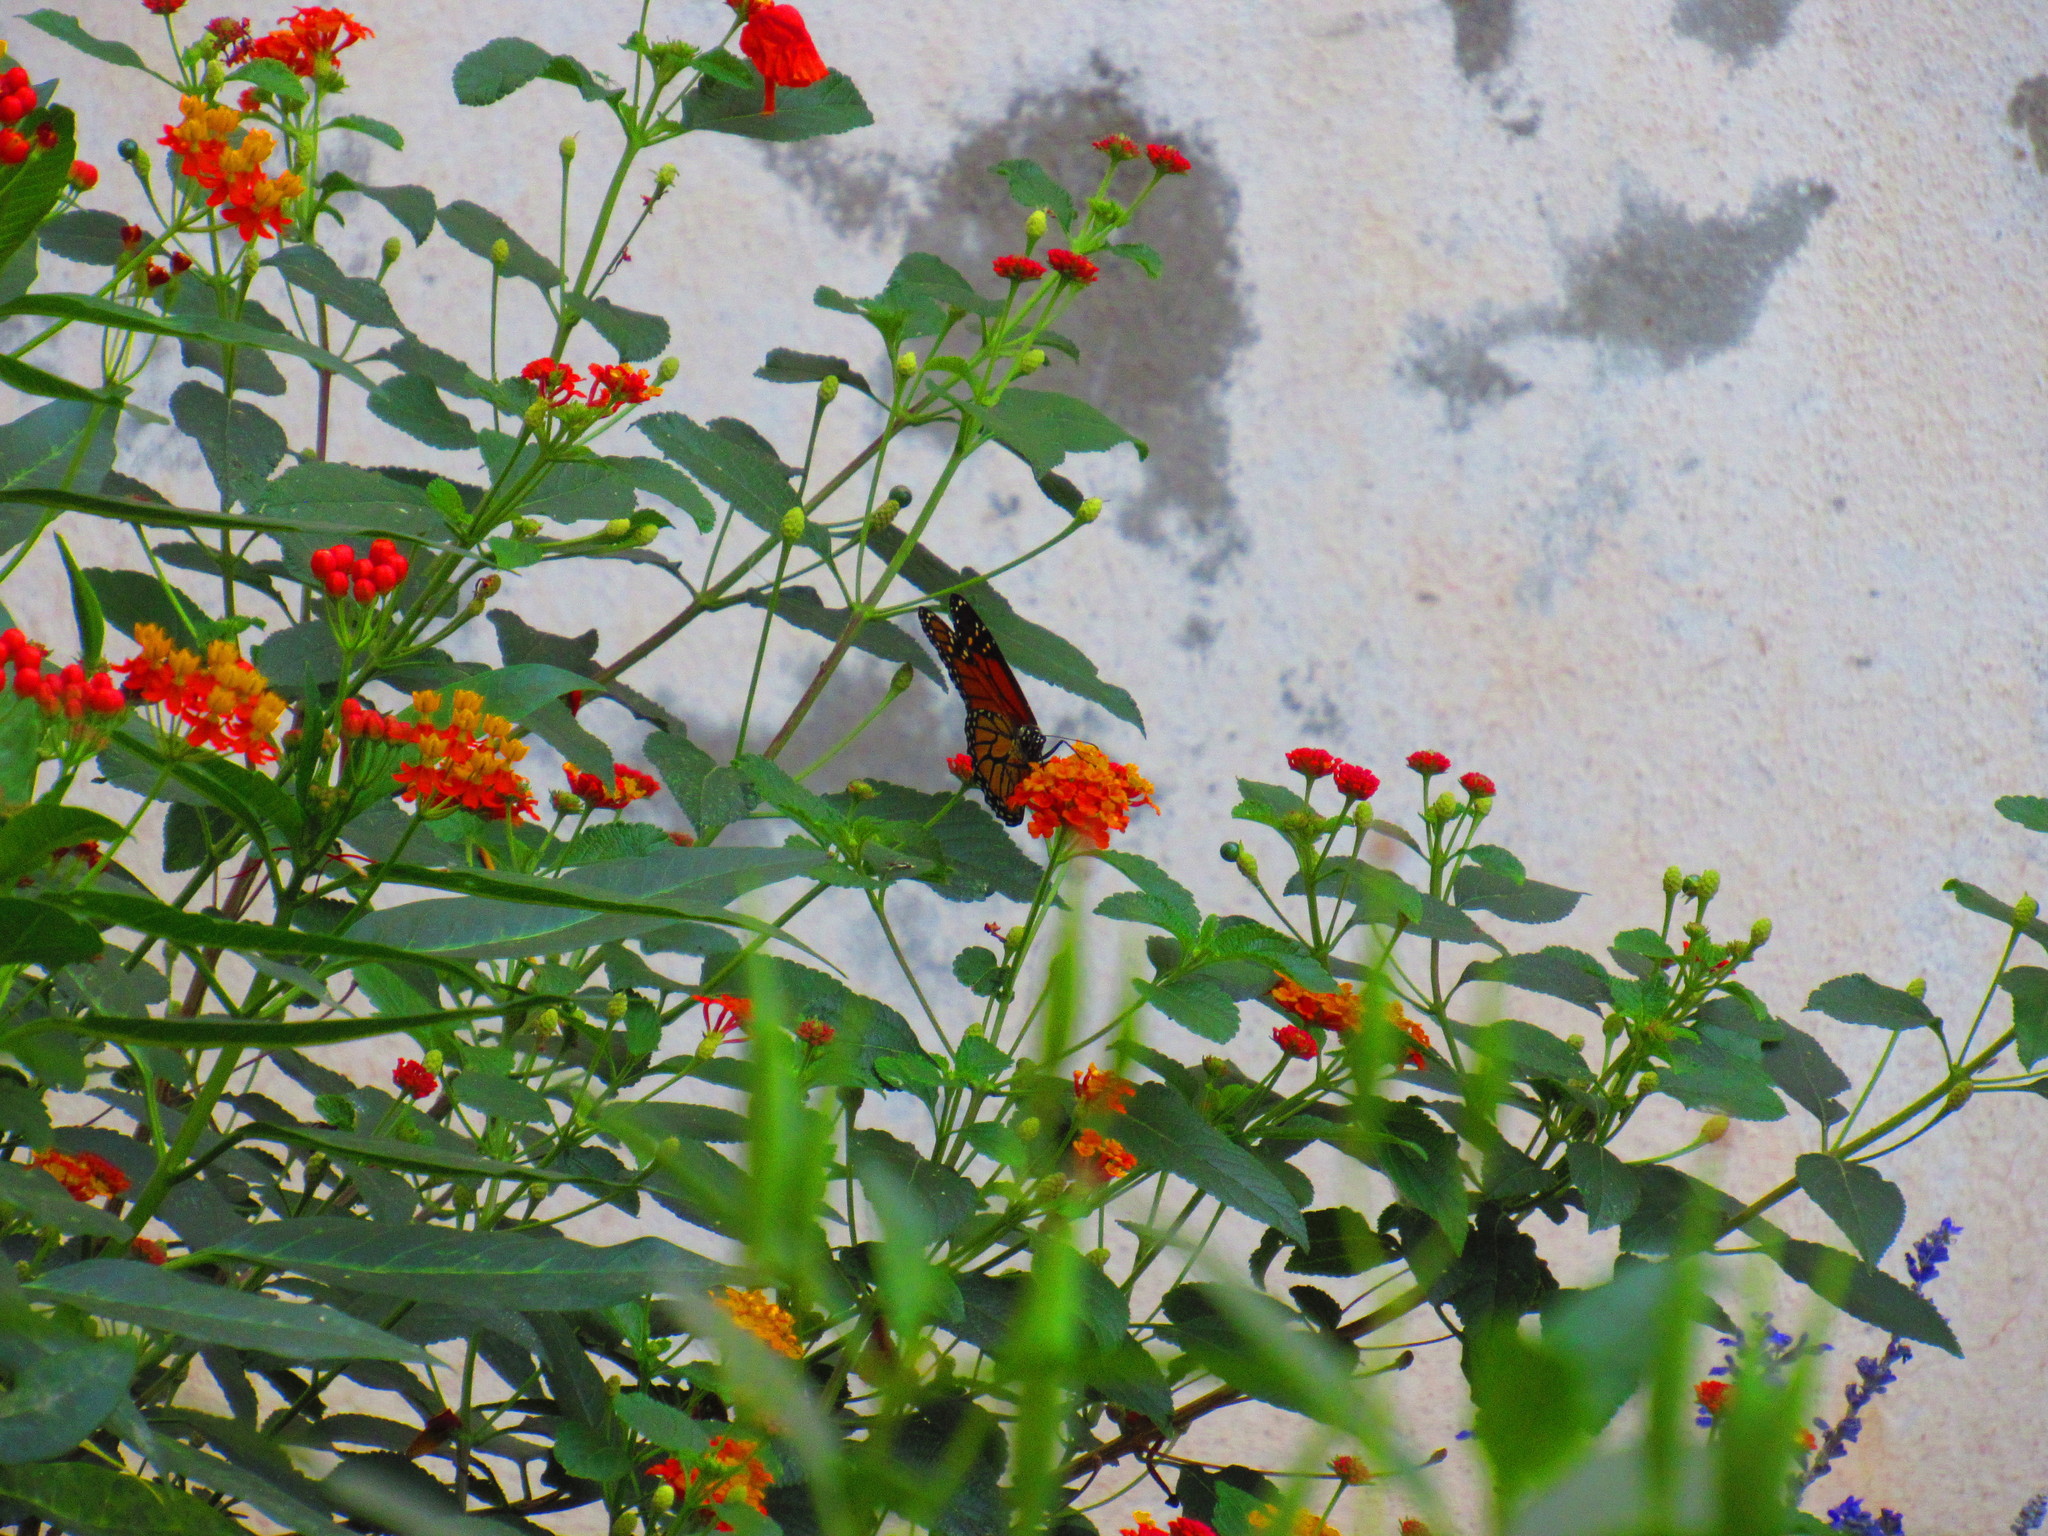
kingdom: Animalia
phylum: Arthropoda
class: Insecta
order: Lepidoptera
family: Nymphalidae
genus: Danaus
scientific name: Danaus plexippus
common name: Monarch
